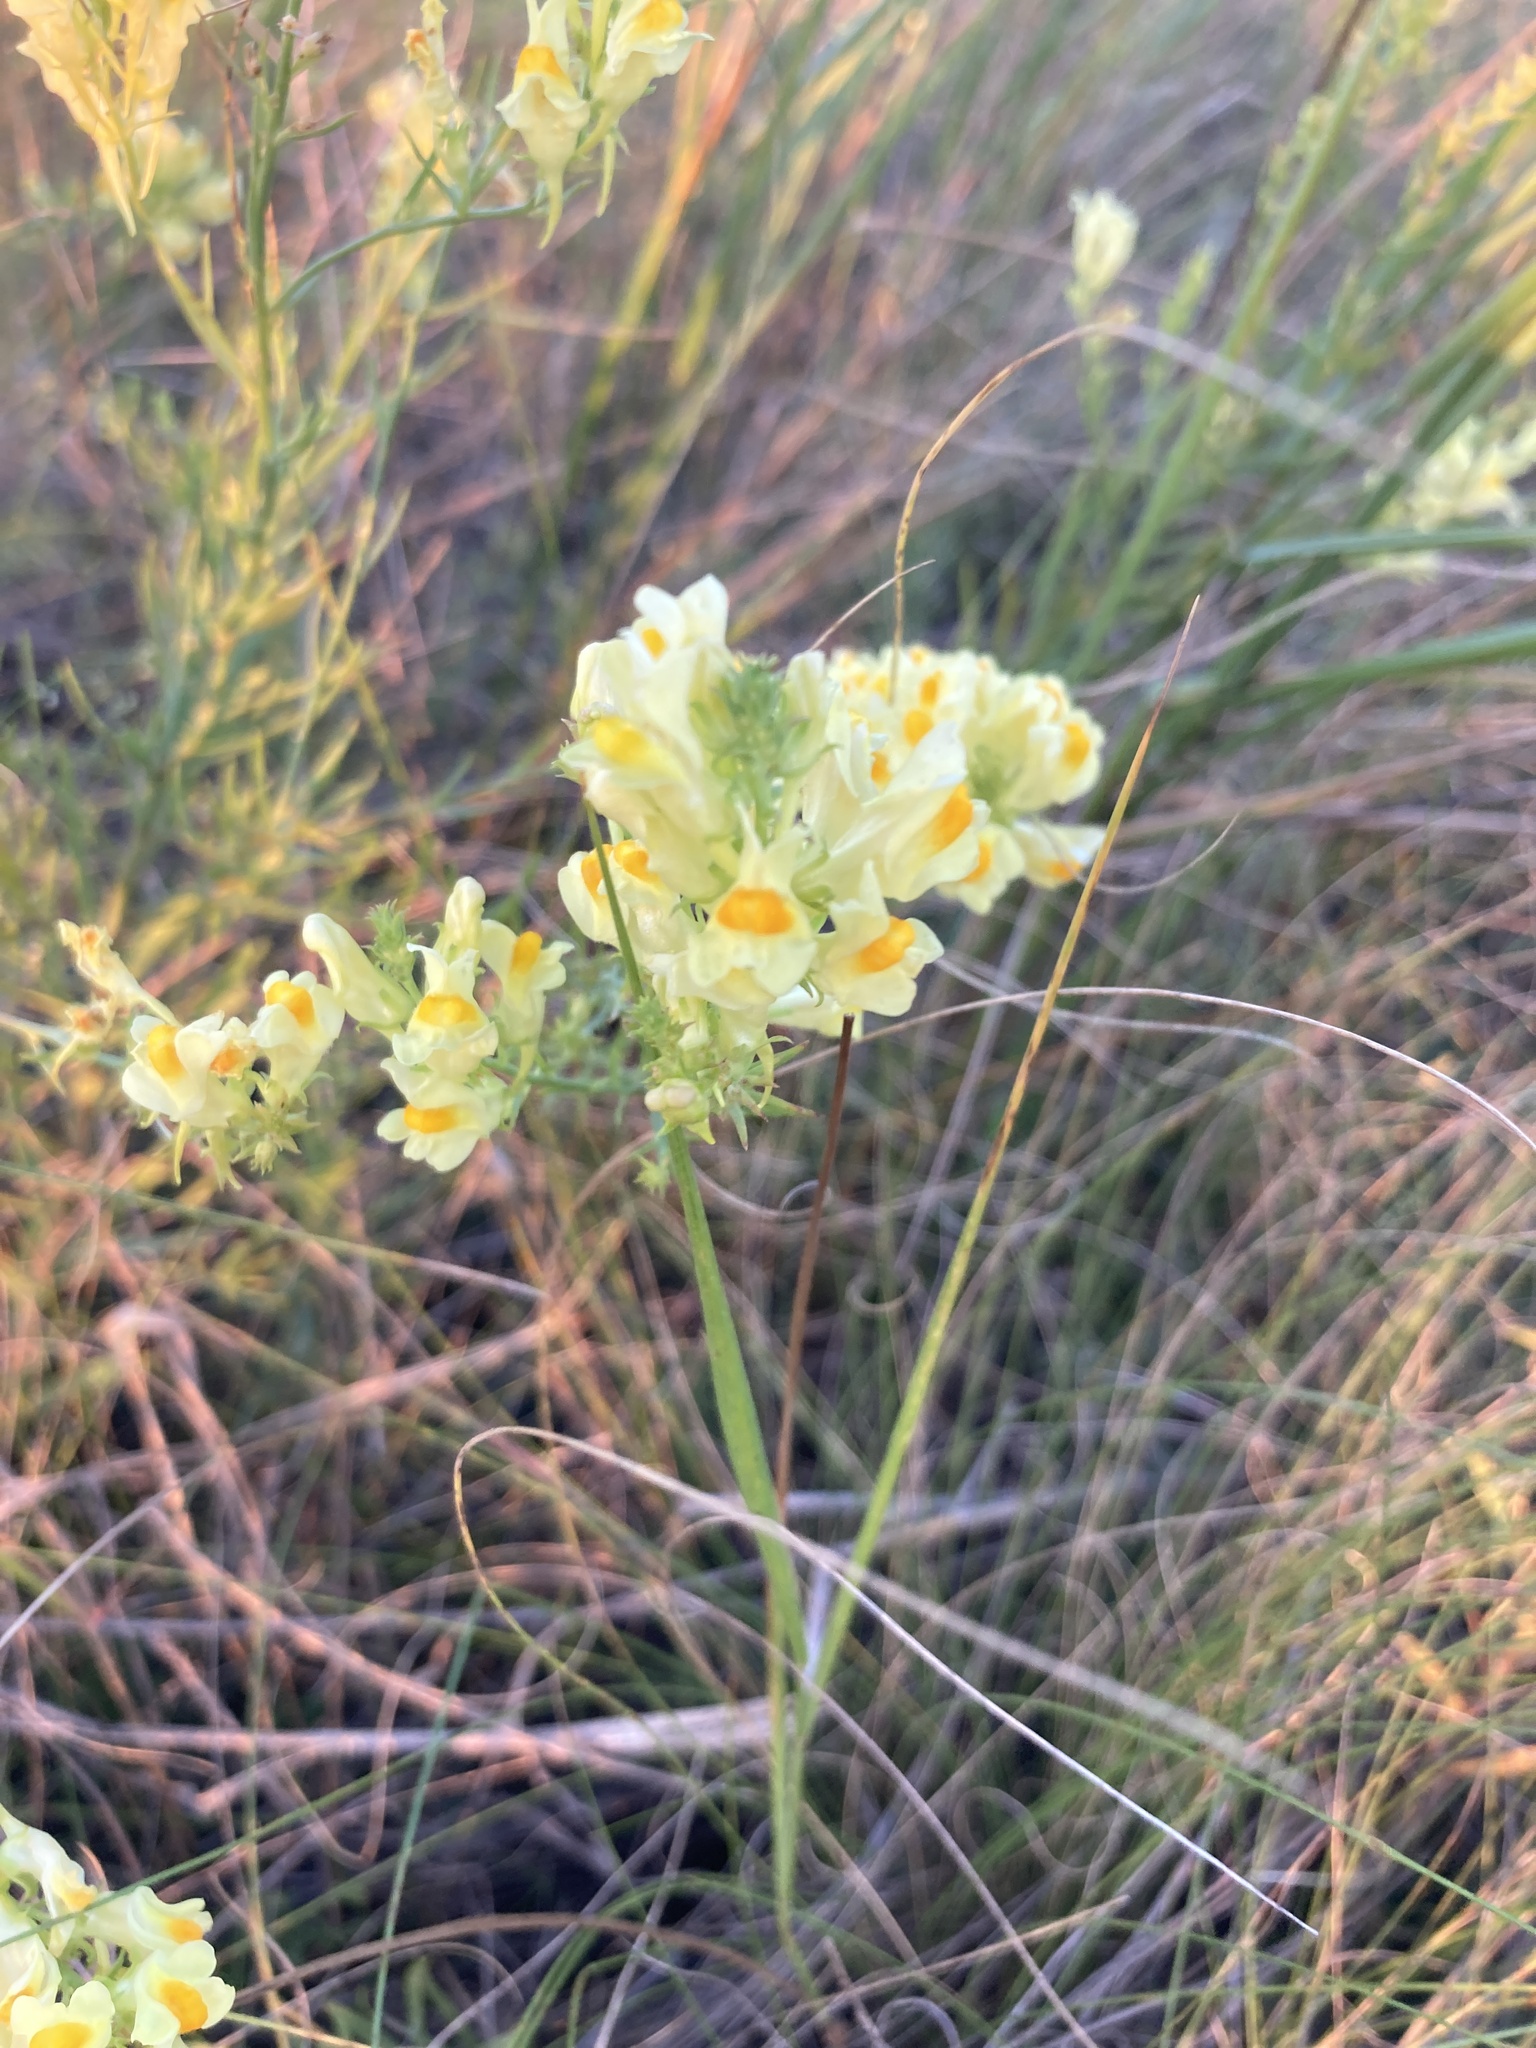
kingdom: Plantae
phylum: Tracheophyta
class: Magnoliopsida
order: Lamiales
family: Plantaginaceae
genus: Linaria
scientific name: Linaria vulgaris
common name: Butter and eggs
